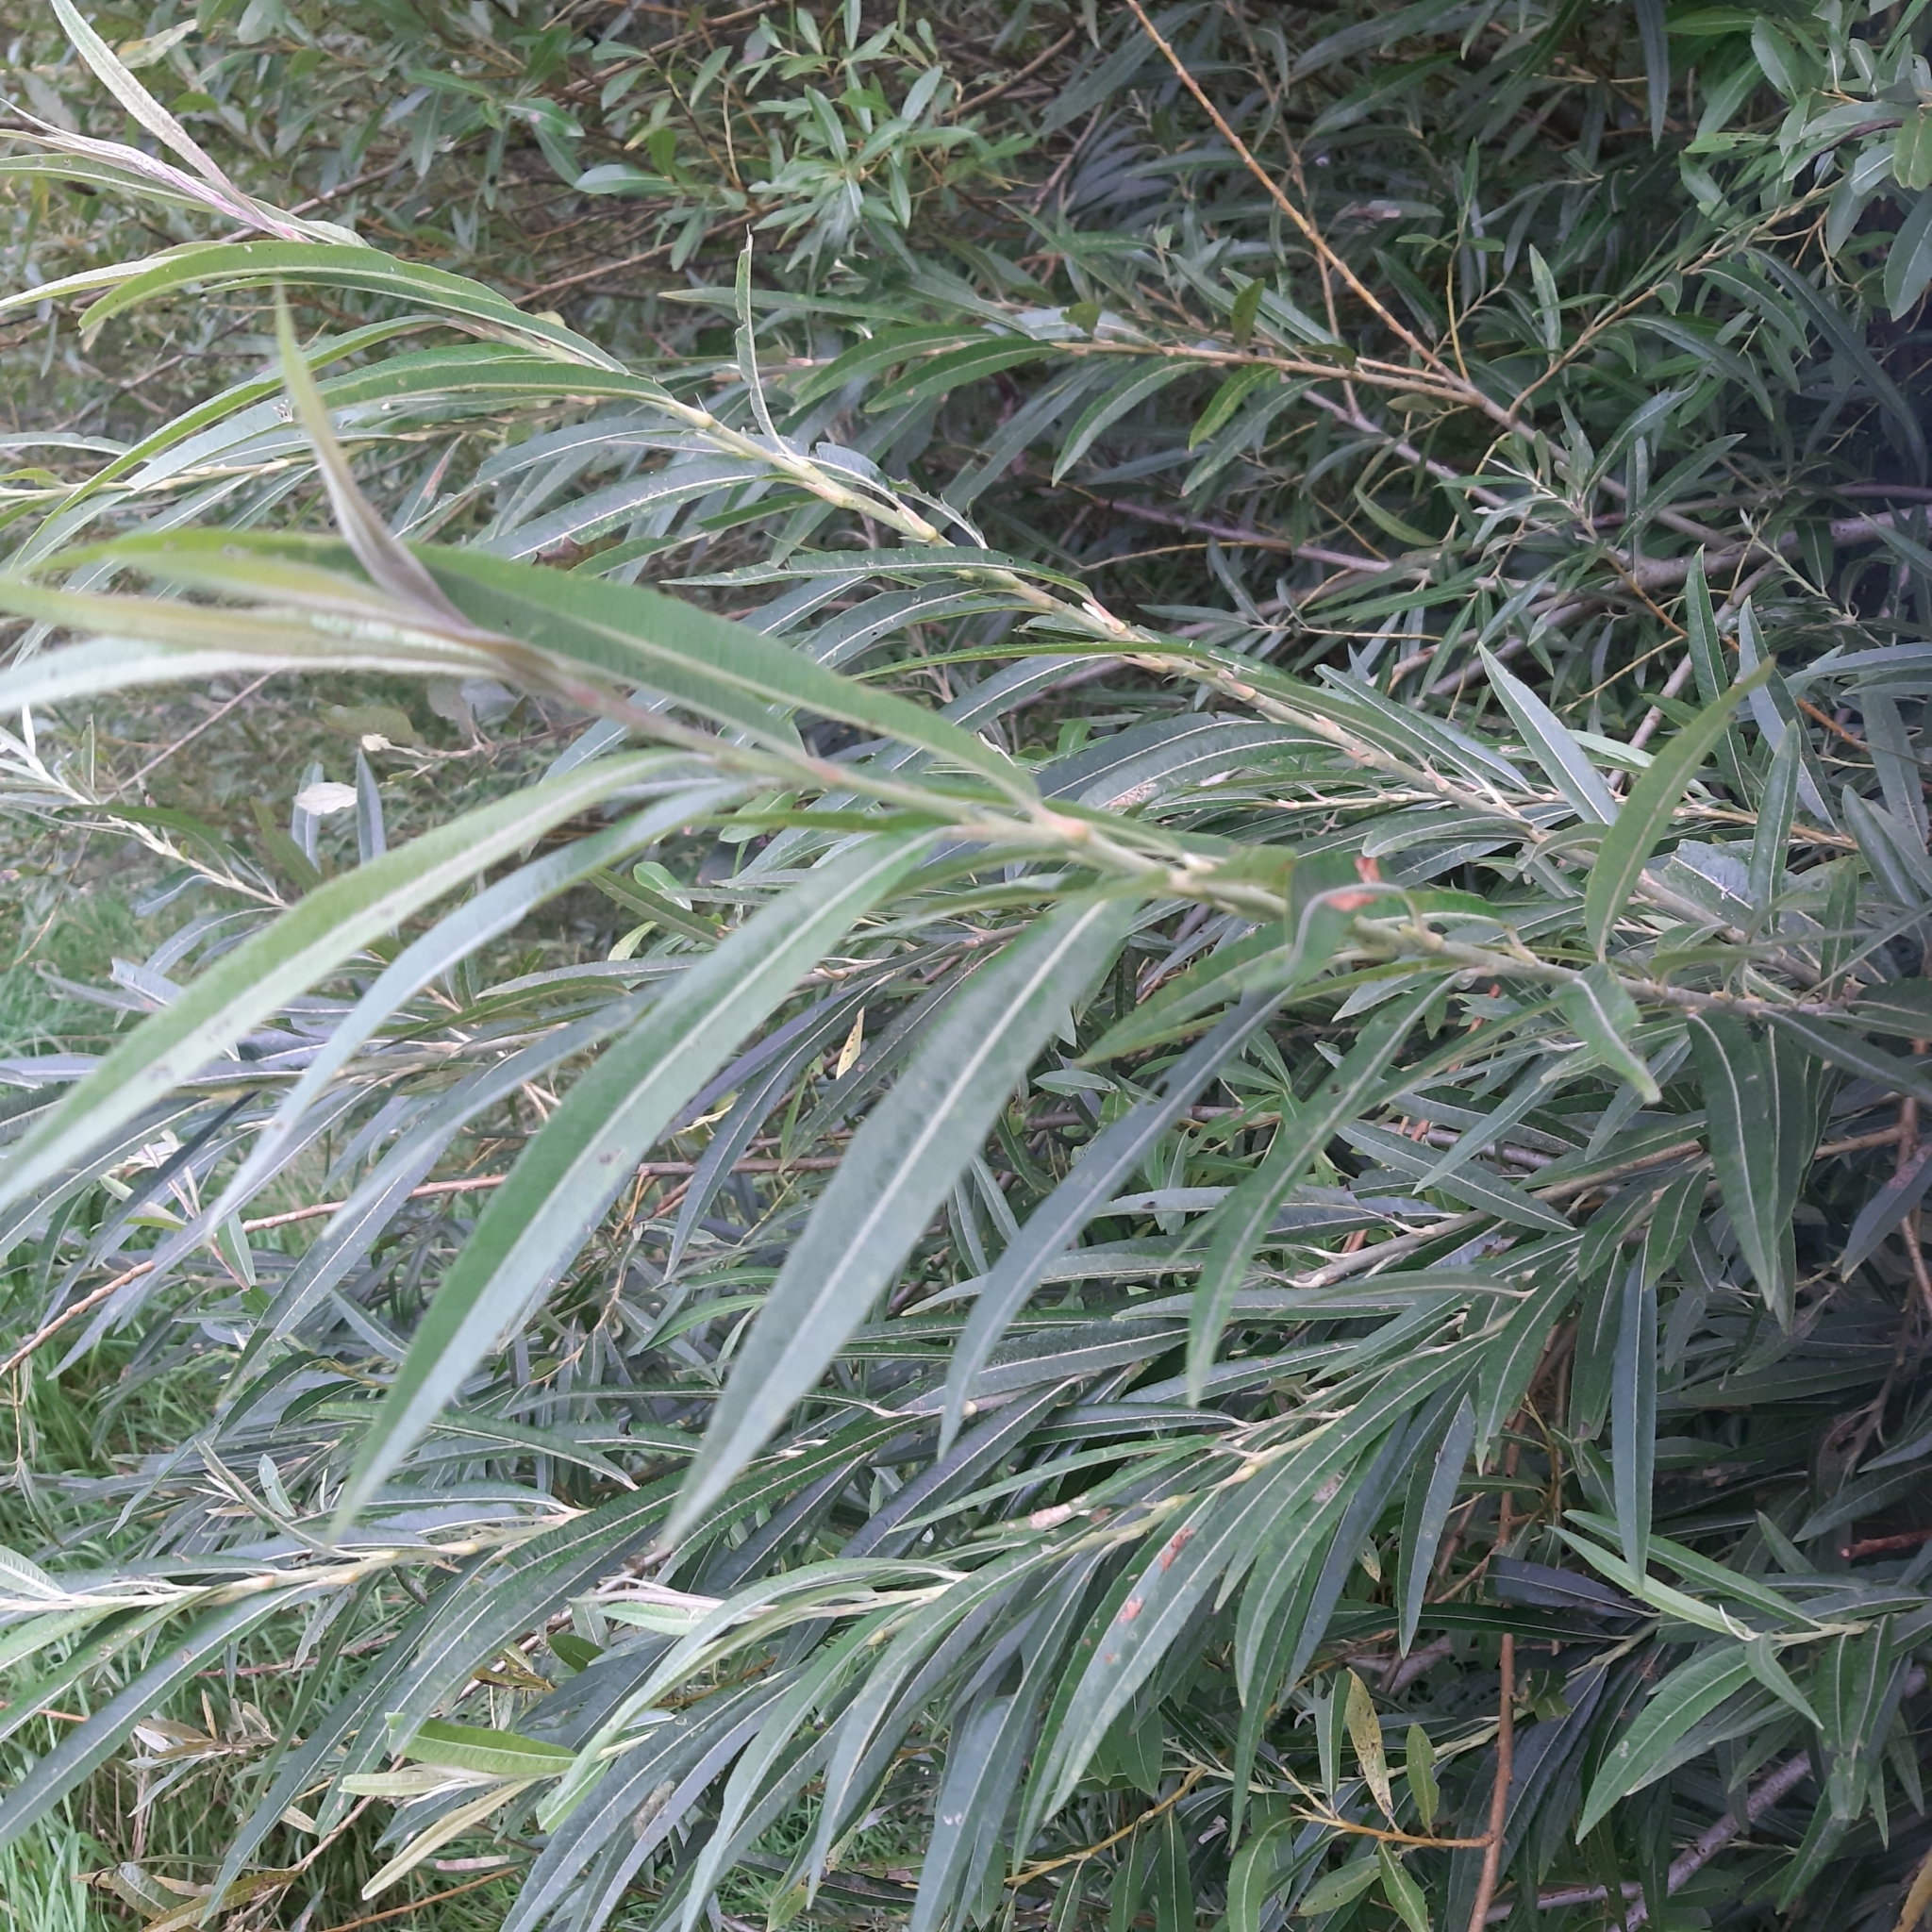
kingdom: Plantae
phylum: Tracheophyta
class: Magnoliopsida
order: Malpighiales
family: Salicaceae
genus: Salix
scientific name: Salix viminalis
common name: Osier
